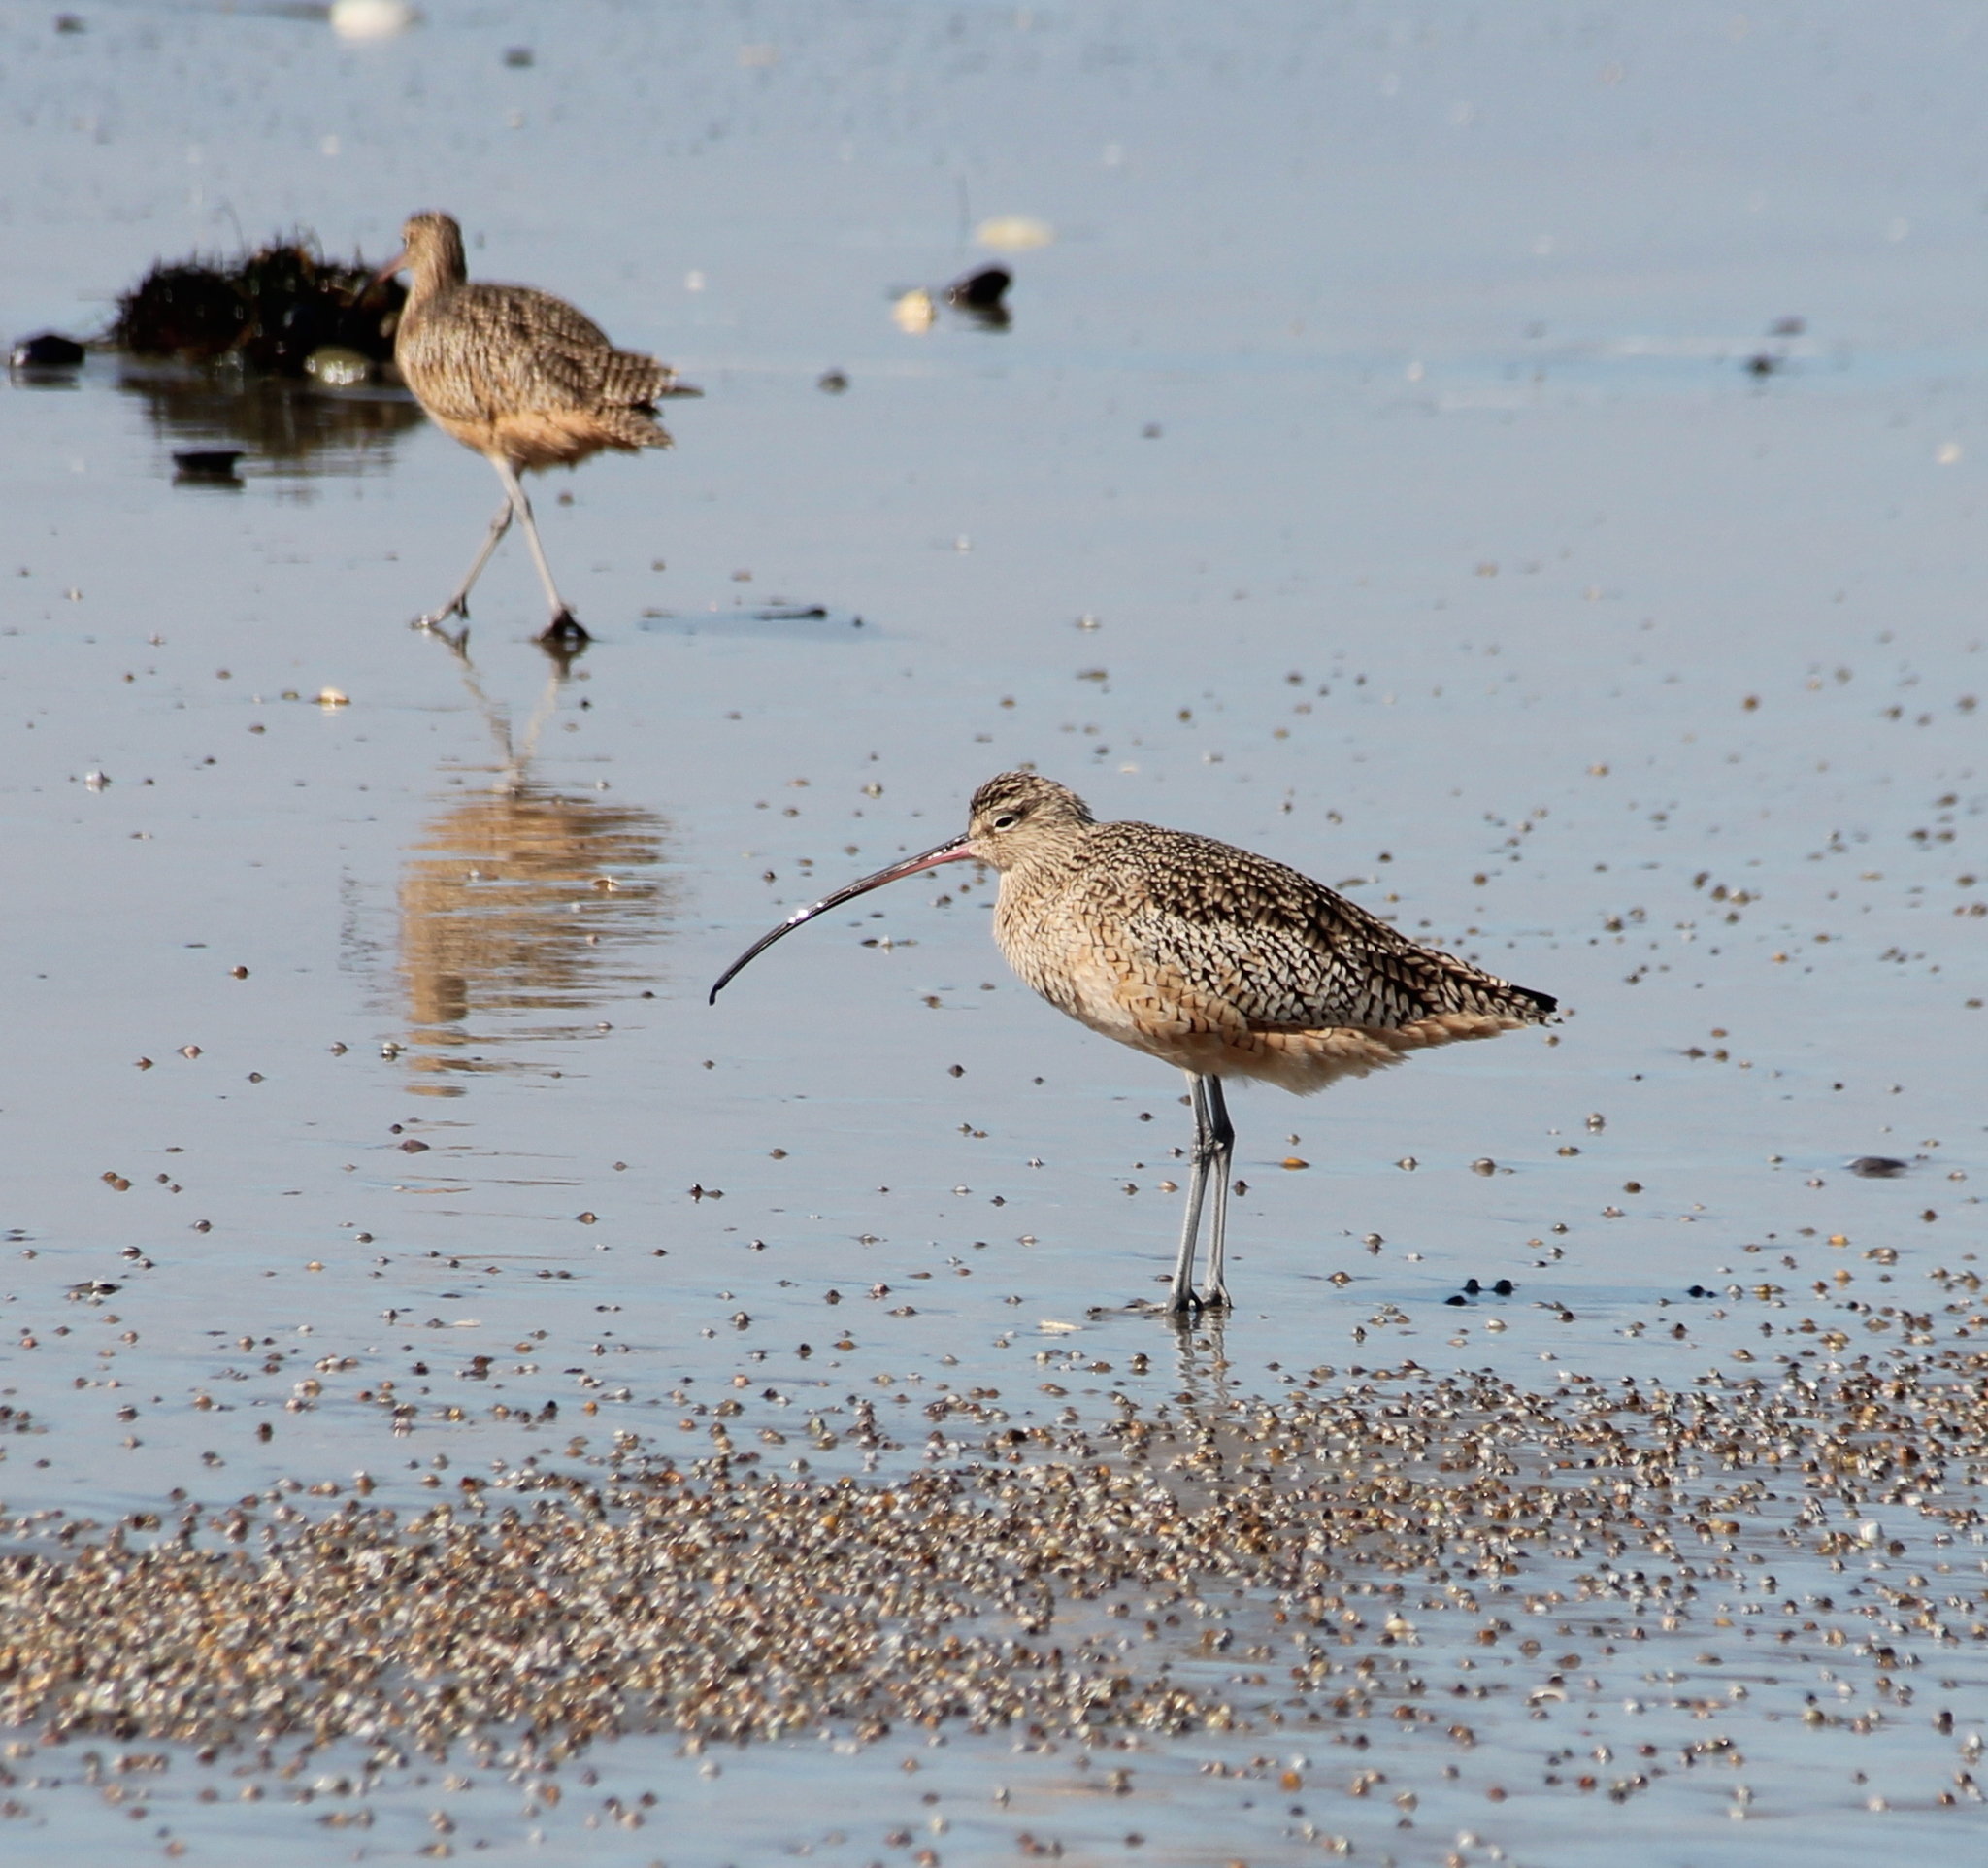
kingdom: Animalia
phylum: Chordata
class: Aves
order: Charadriiformes
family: Scolopacidae
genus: Numenius
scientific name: Numenius americanus
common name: Long-billed curlew
